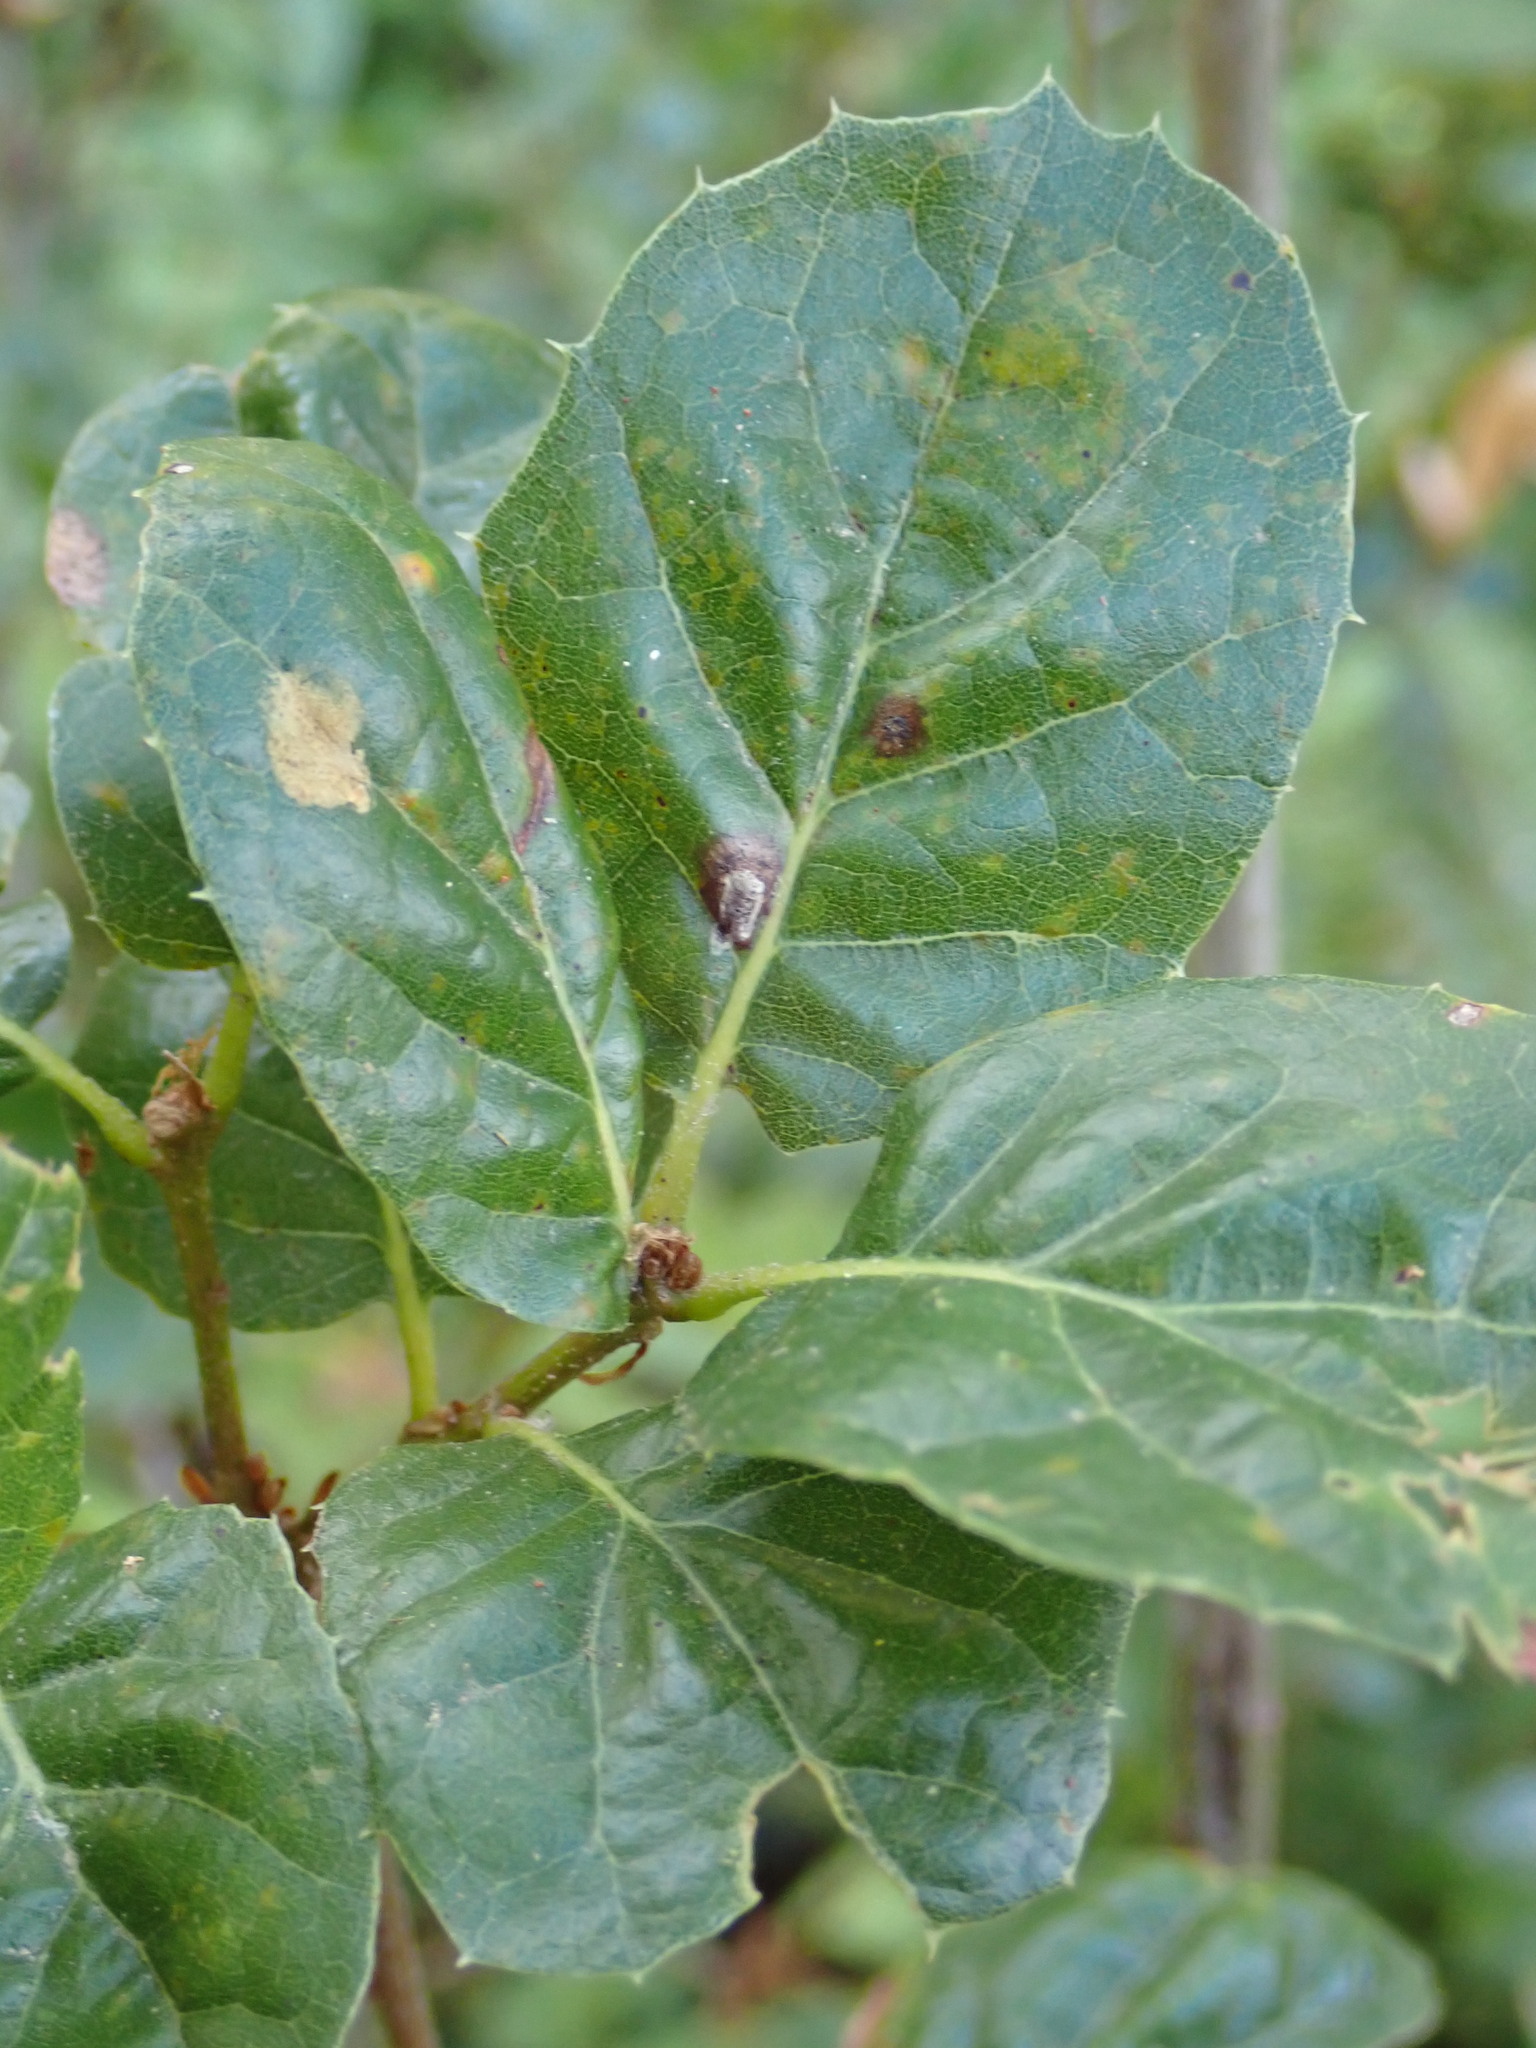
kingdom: Animalia
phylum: Arthropoda
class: Insecta
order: Hymenoptera
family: Cynipidae
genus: Callirhytis
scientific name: Callirhytis
